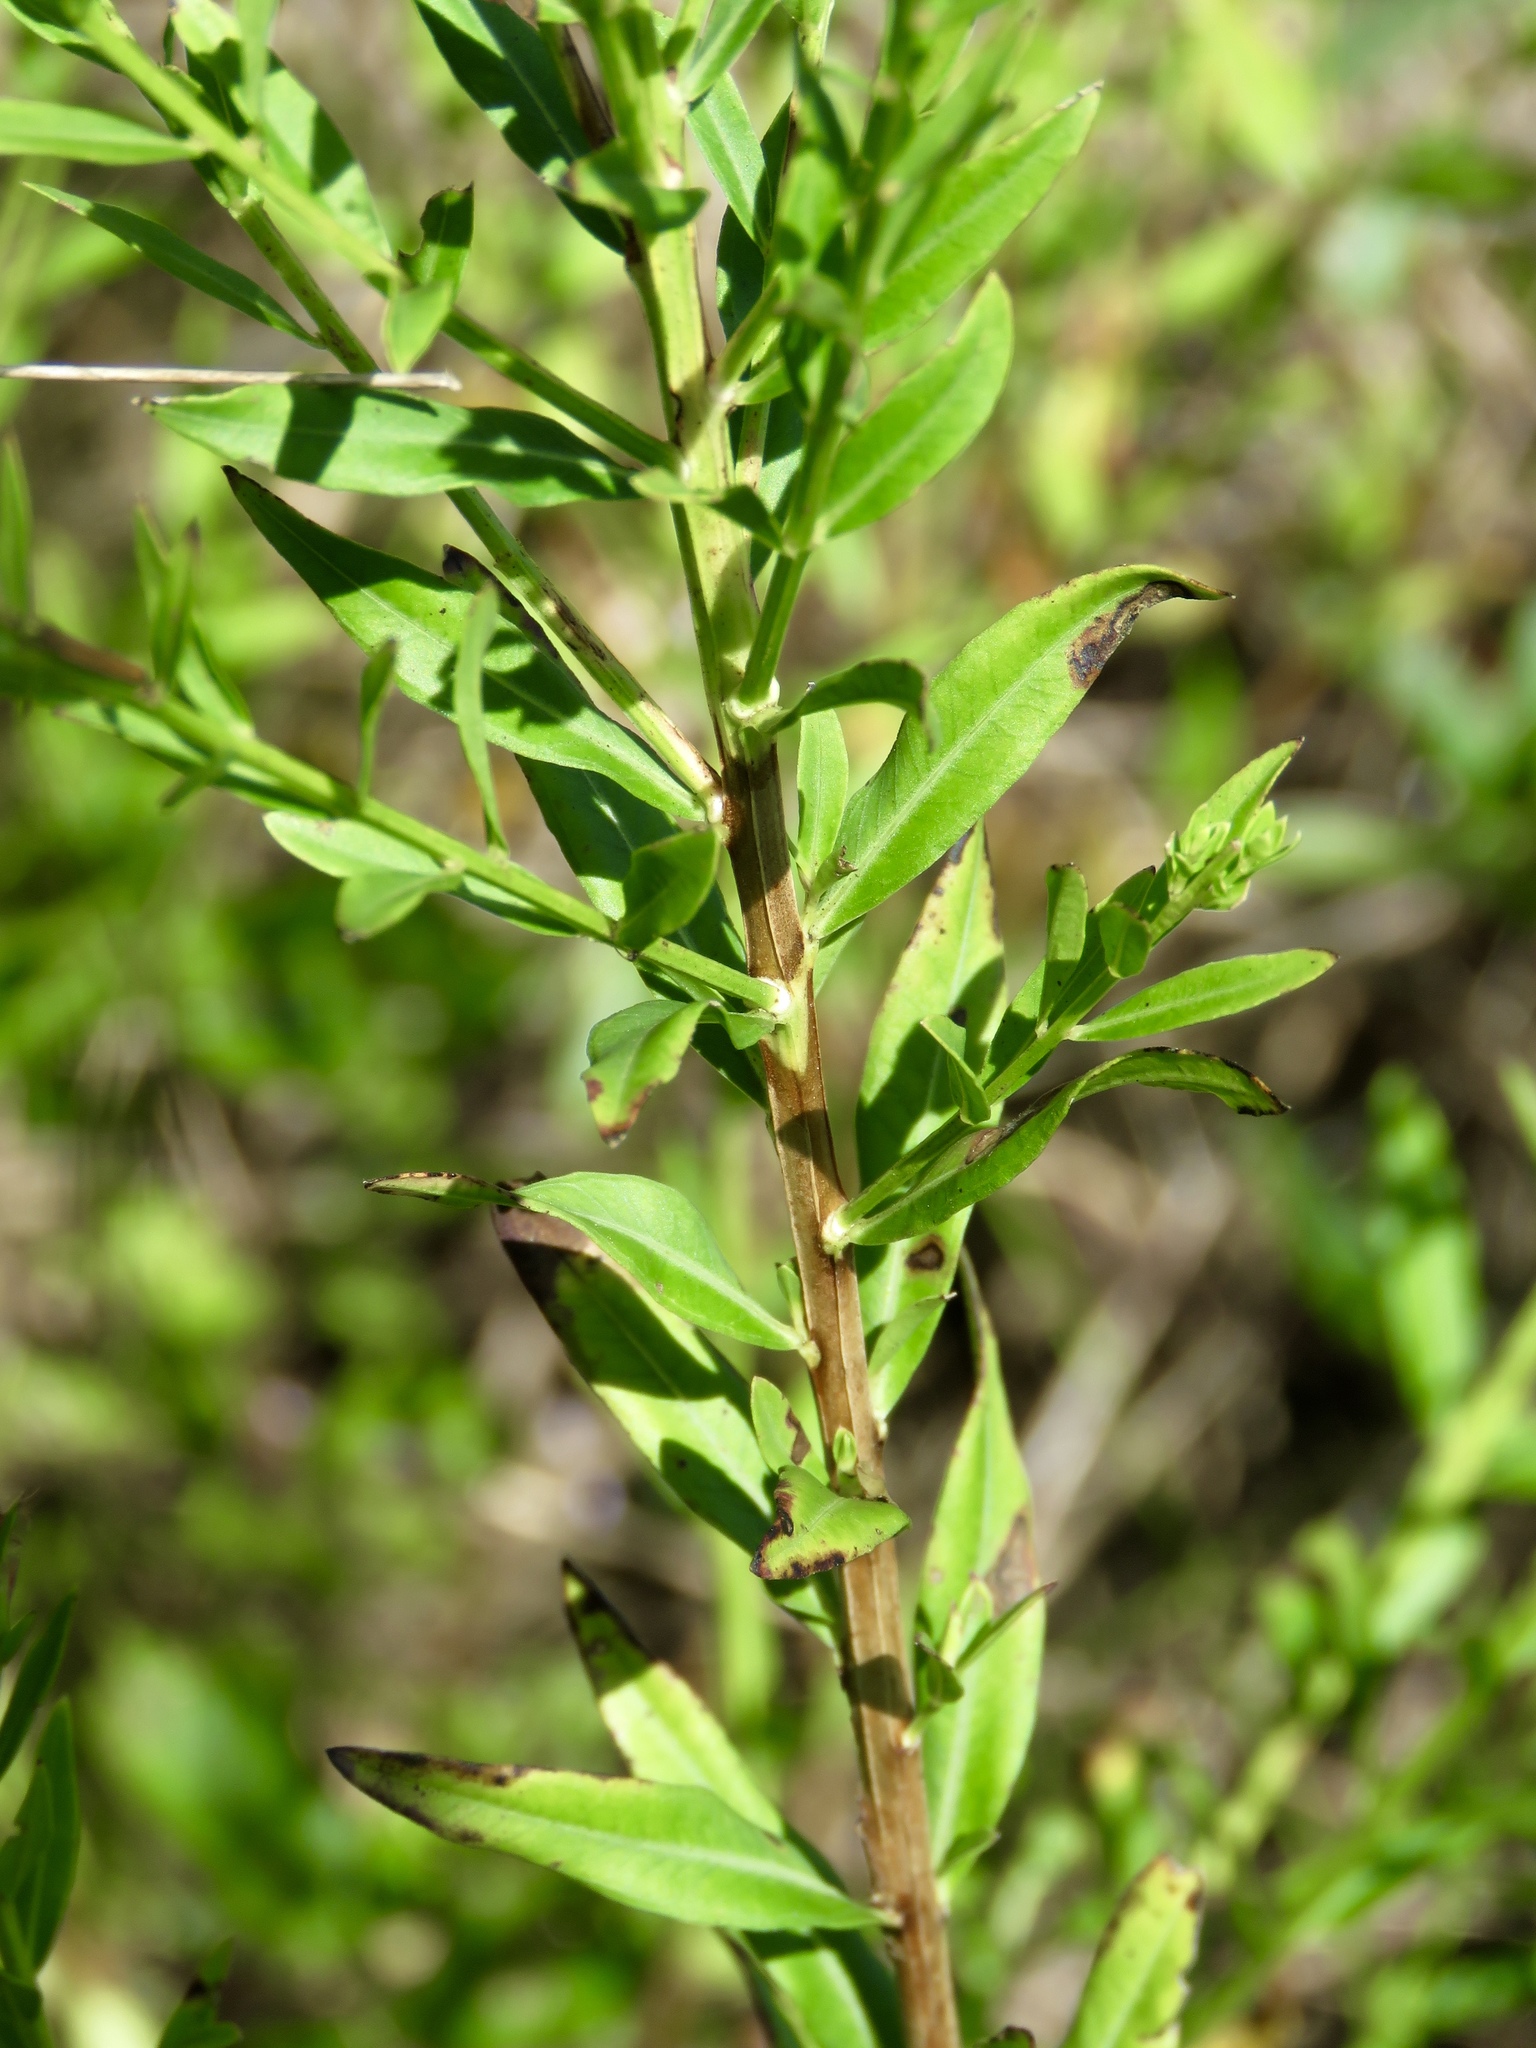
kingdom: Plantae
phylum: Tracheophyta
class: Magnoliopsida
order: Myrtales
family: Lythraceae
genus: Lythrum
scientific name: Lythrum alatum
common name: Winged loosestrife
